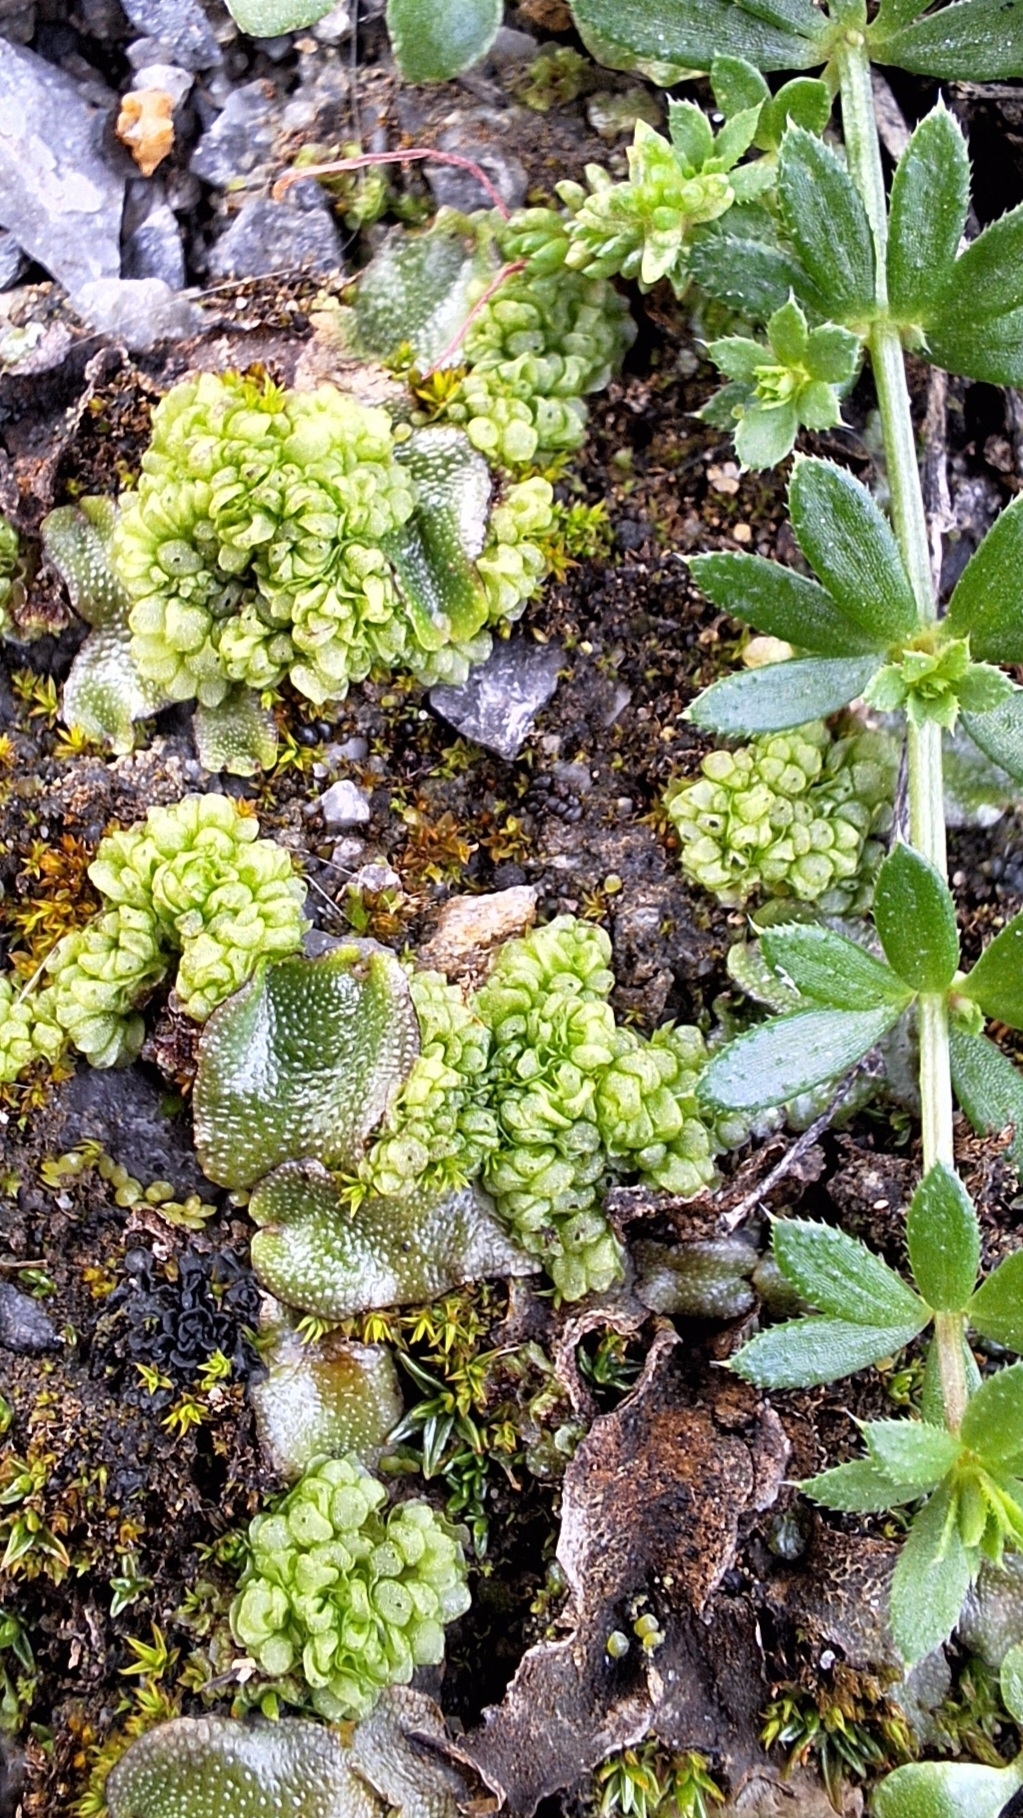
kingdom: Plantae
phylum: Marchantiophyta
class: Marchantiopsida
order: Sphaerocarpales
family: Sphaerocarpaceae
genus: Sphaerocarpos
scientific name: Sphaerocarpos texanus
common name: Texas balloonwort
